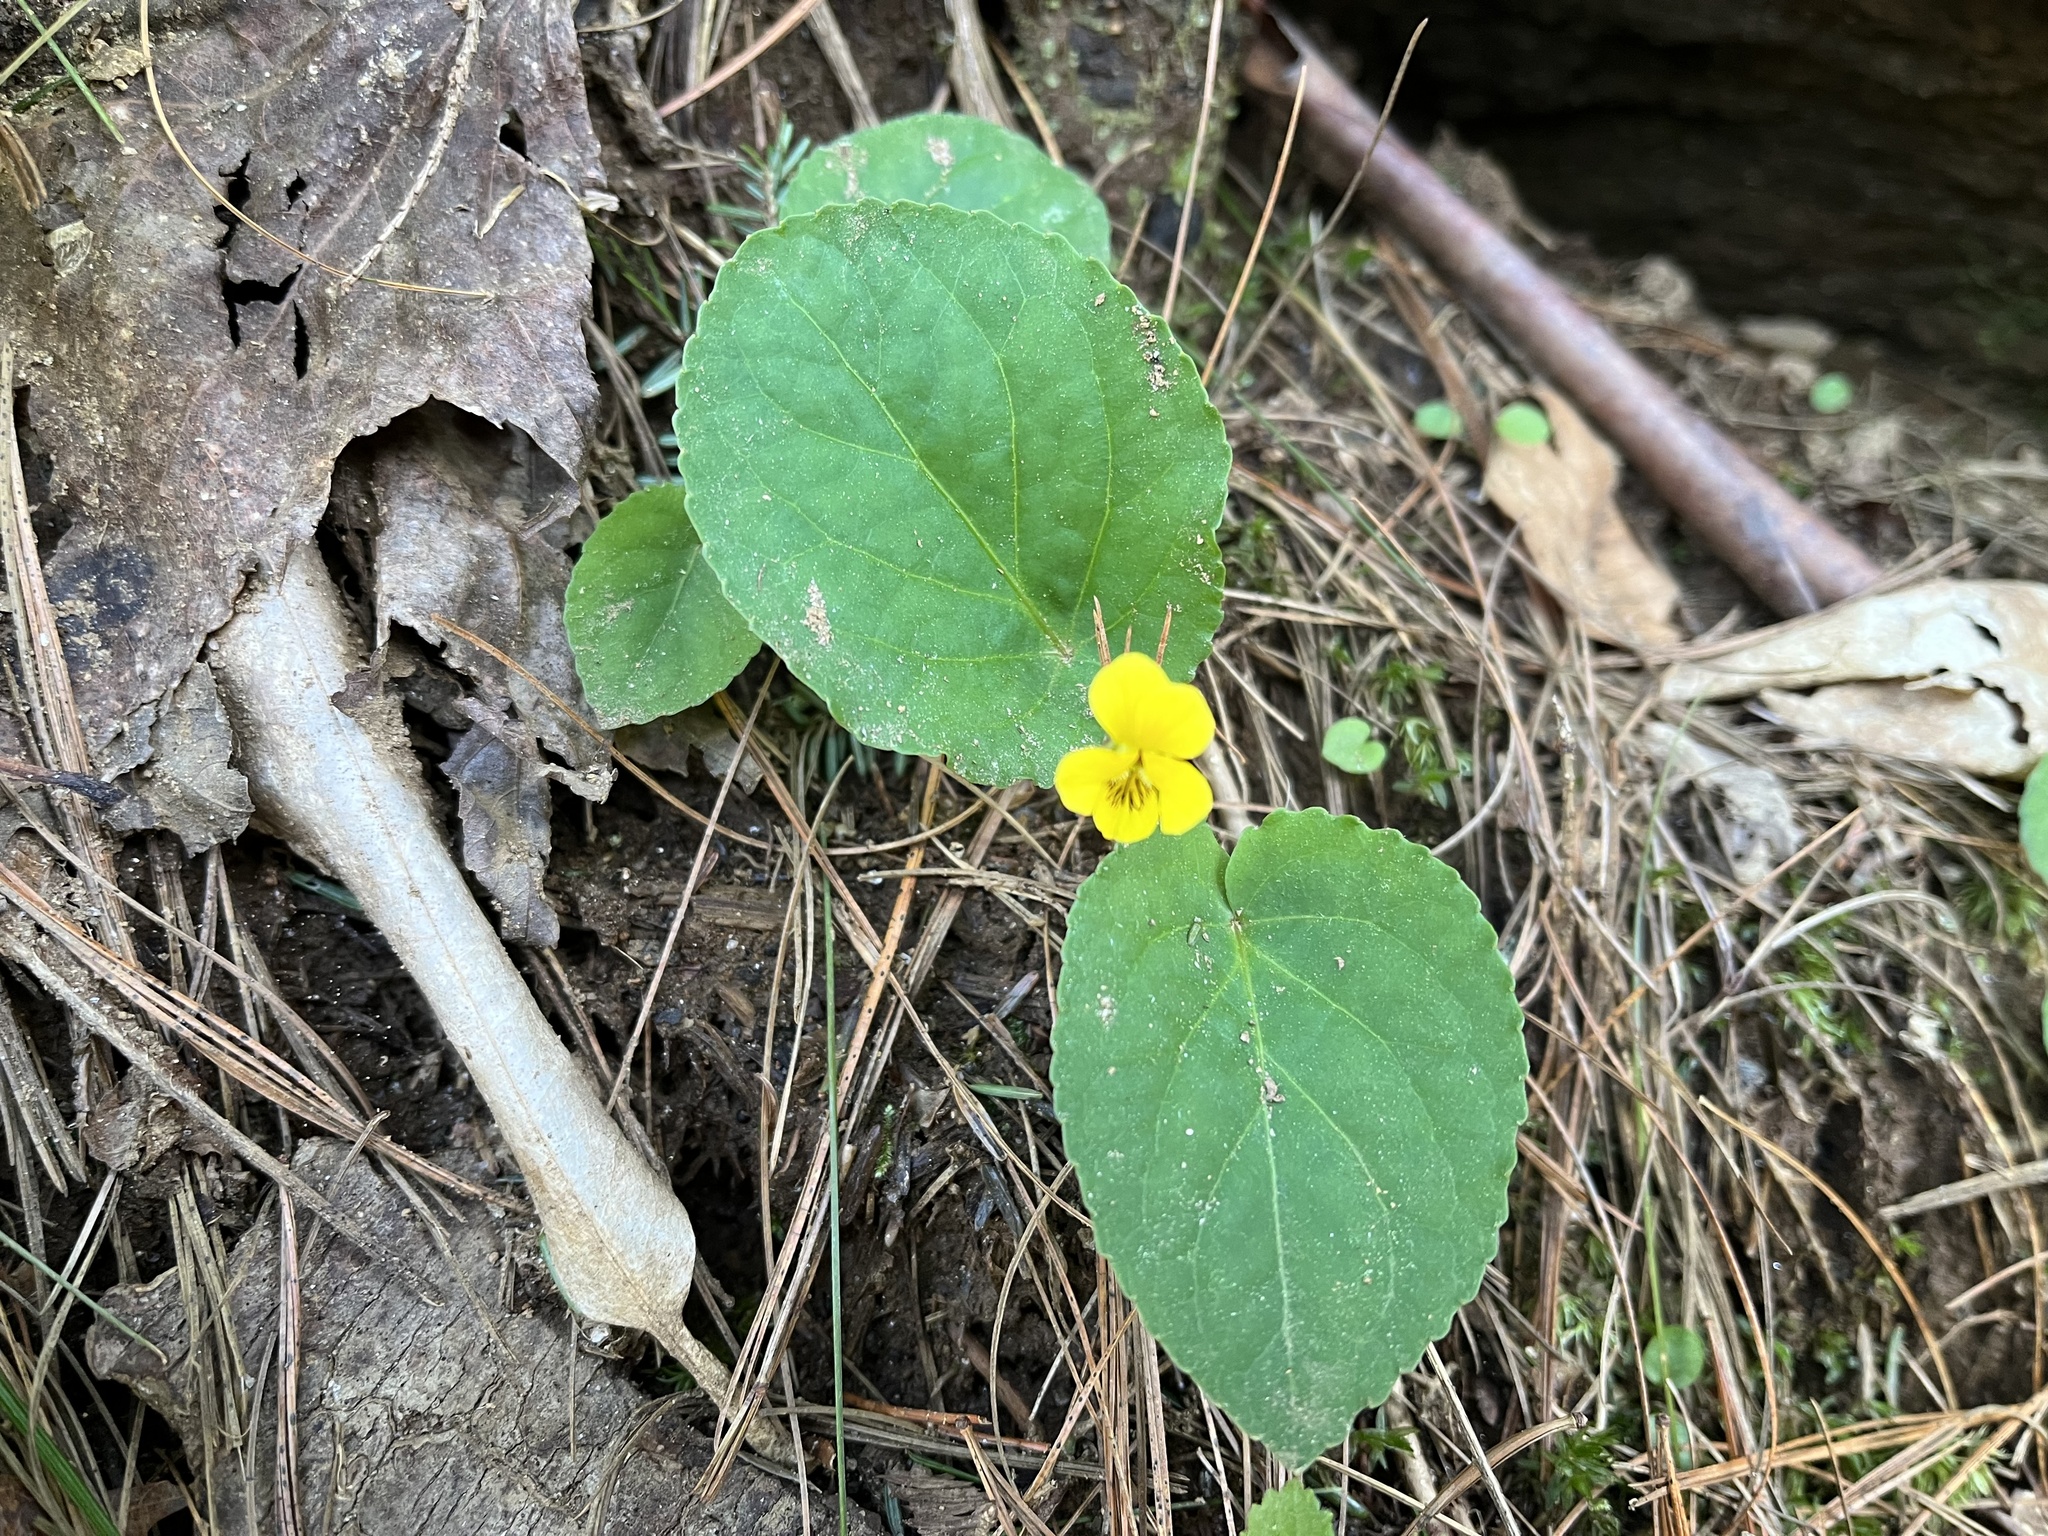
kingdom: Plantae
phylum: Tracheophyta
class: Magnoliopsida
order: Malpighiales
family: Violaceae
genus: Viola
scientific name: Viola rotundifolia
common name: Early yellow violet
